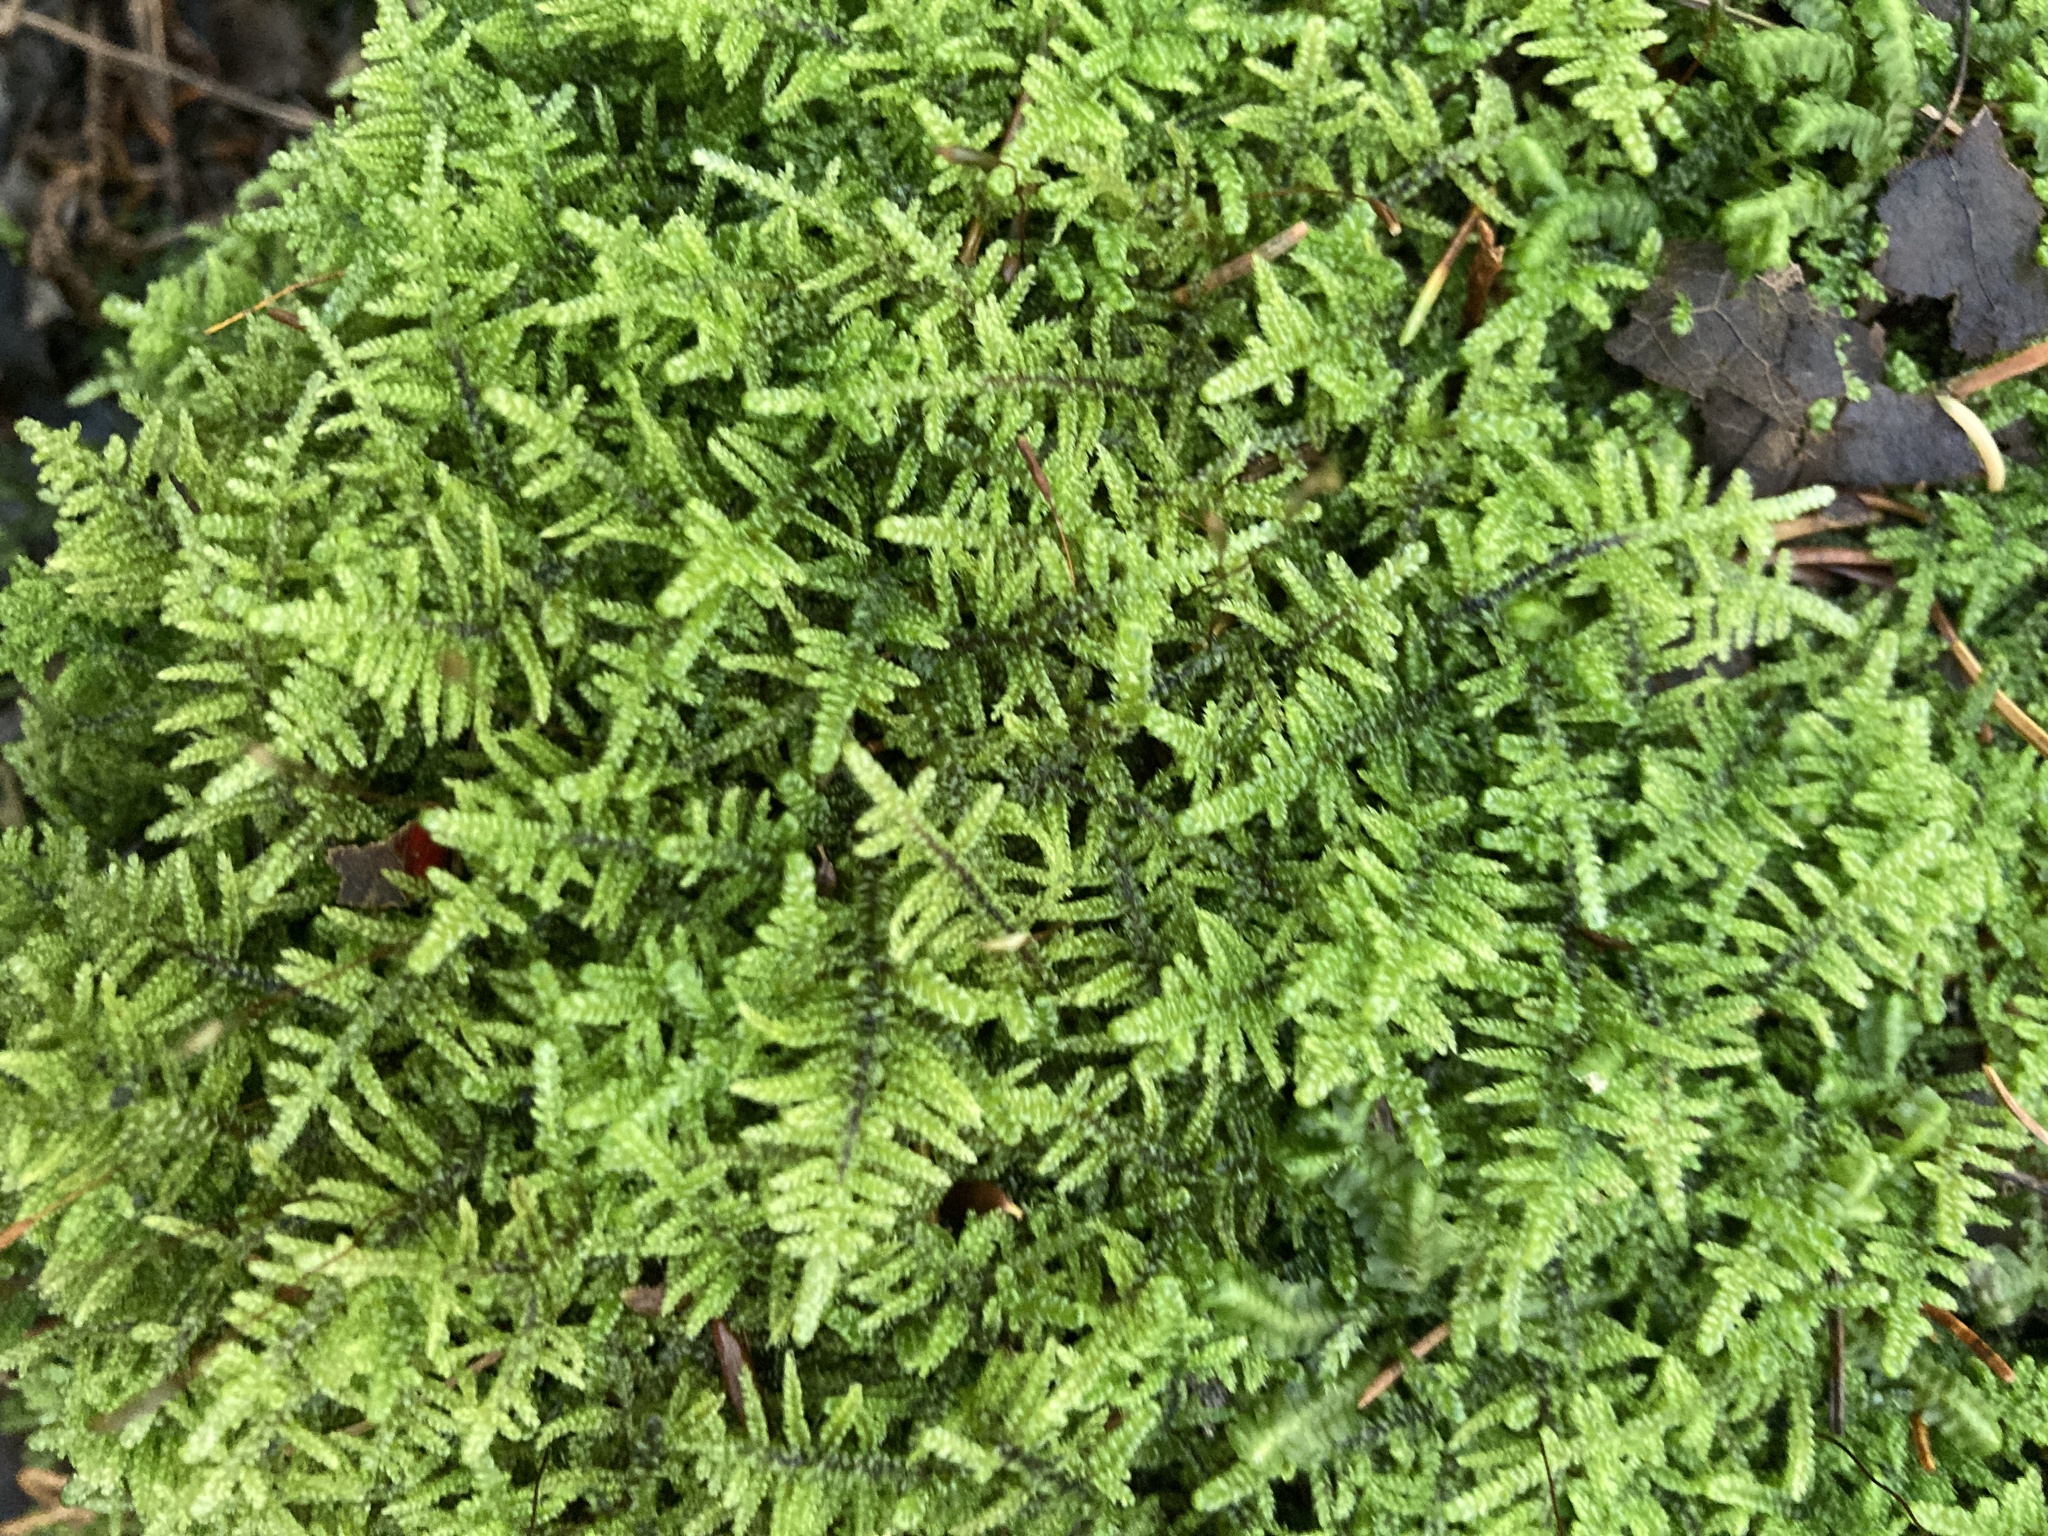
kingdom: Plantae
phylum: Bryophyta
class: Bryopsida
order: Hypnales
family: Callicladiaceae
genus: Callicladium
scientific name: Callicladium imponens
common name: Brocade moss
